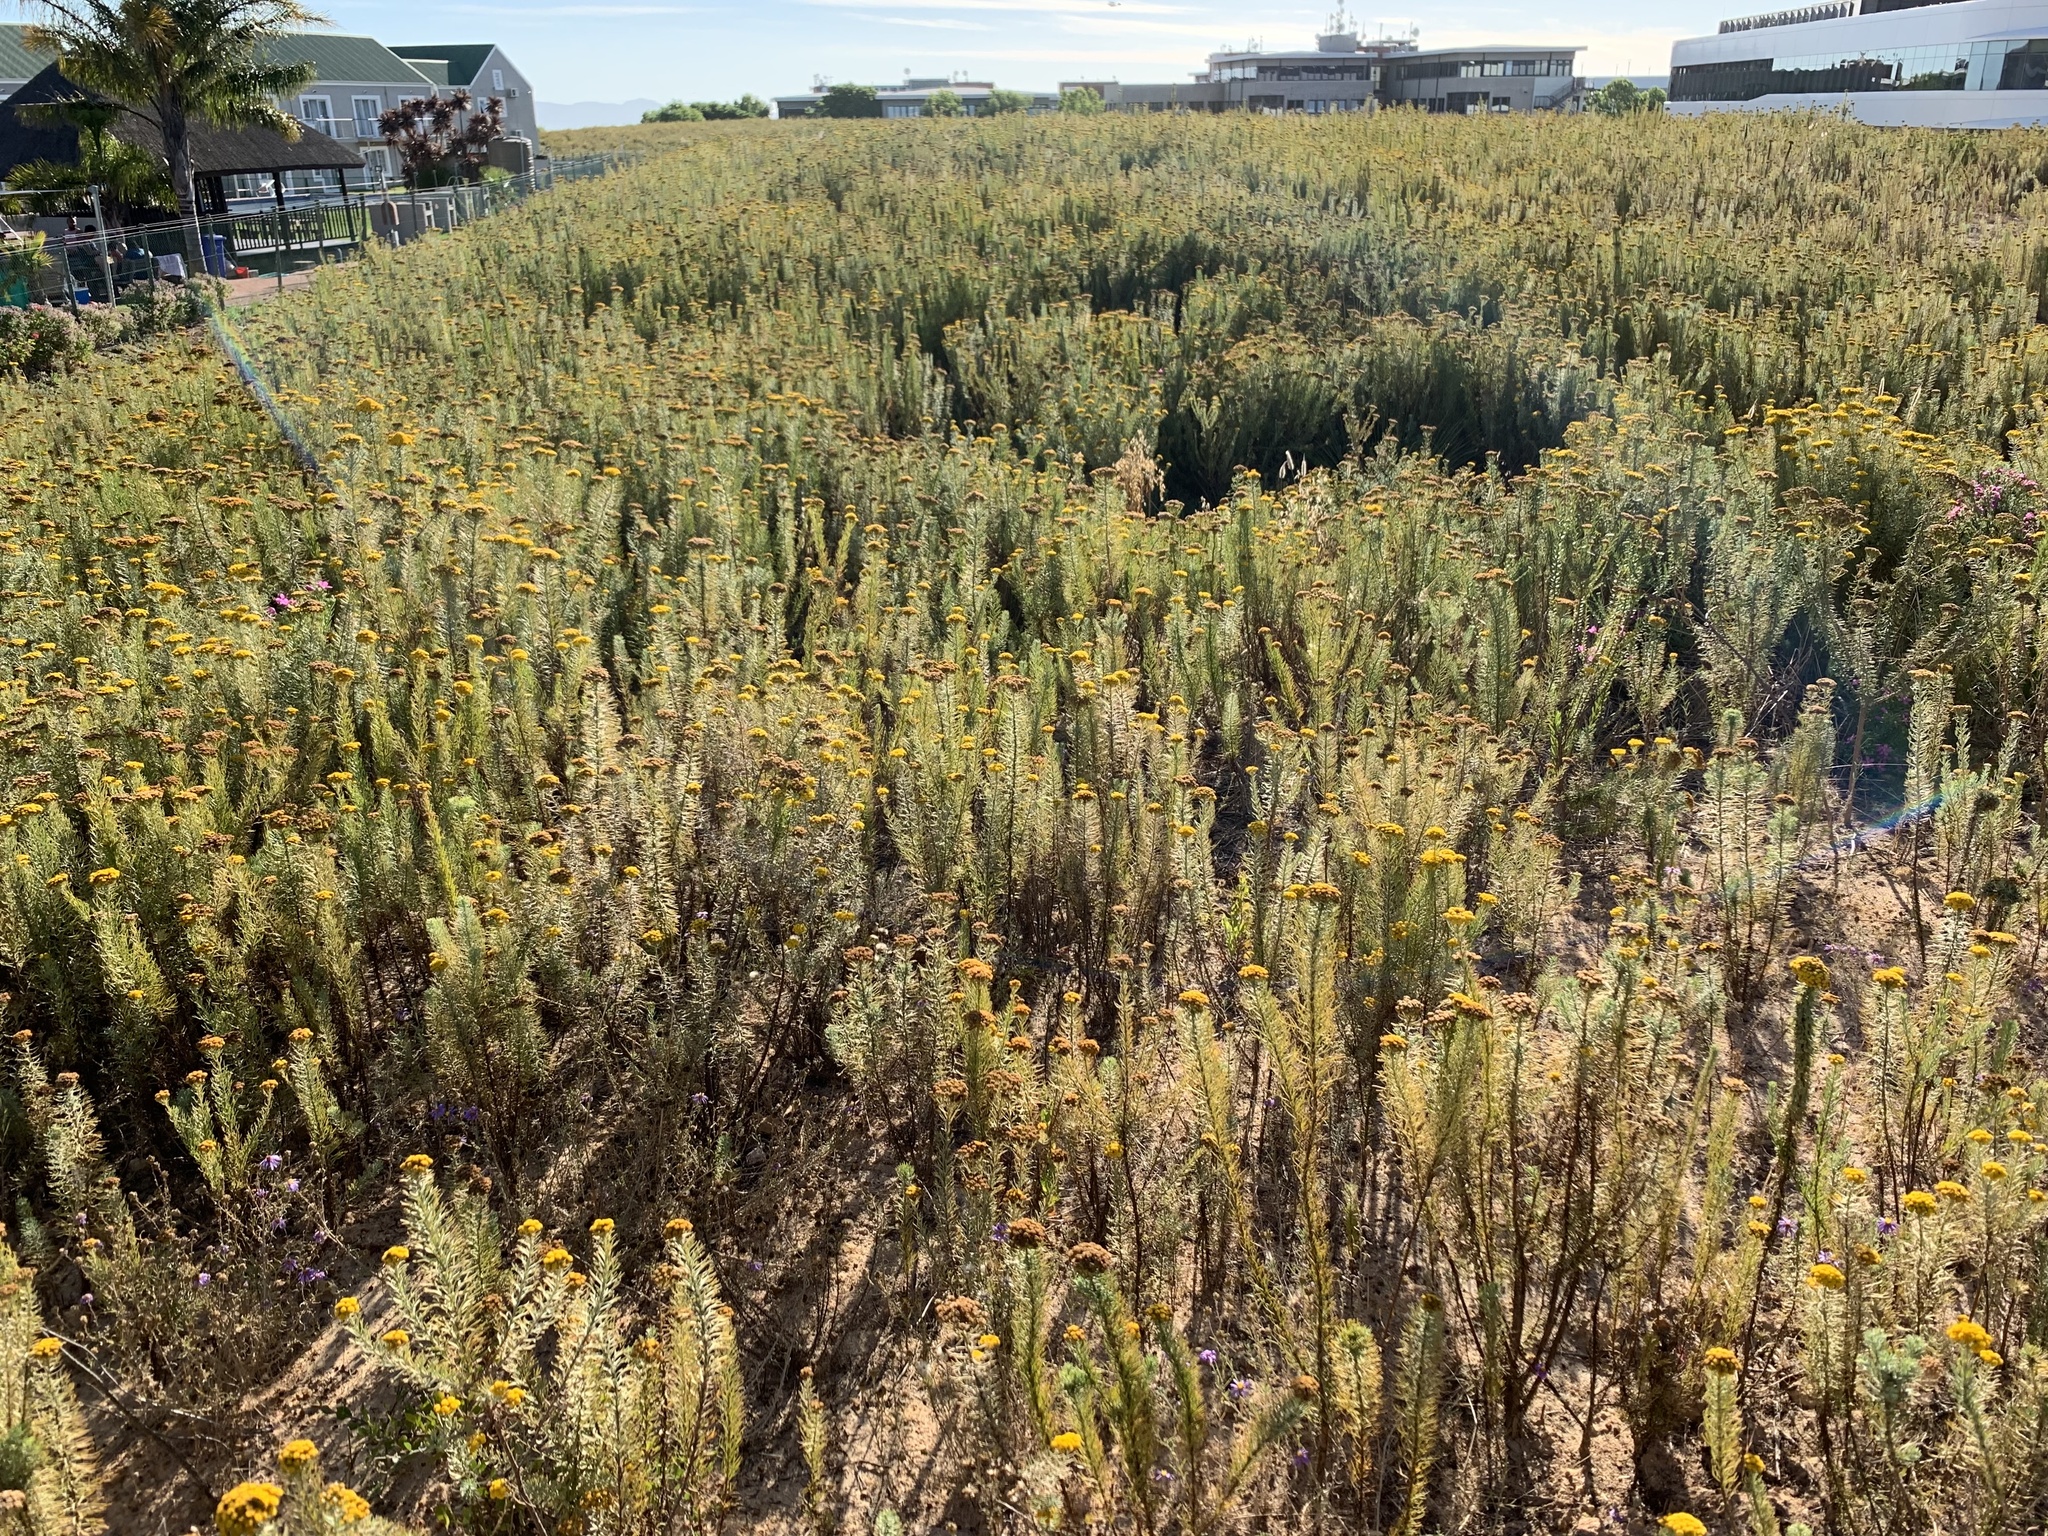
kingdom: Plantae
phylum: Tracheophyta
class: Magnoliopsida
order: Asterales
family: Asteraceae
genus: Athanasia
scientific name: Athanasia trifurcata
